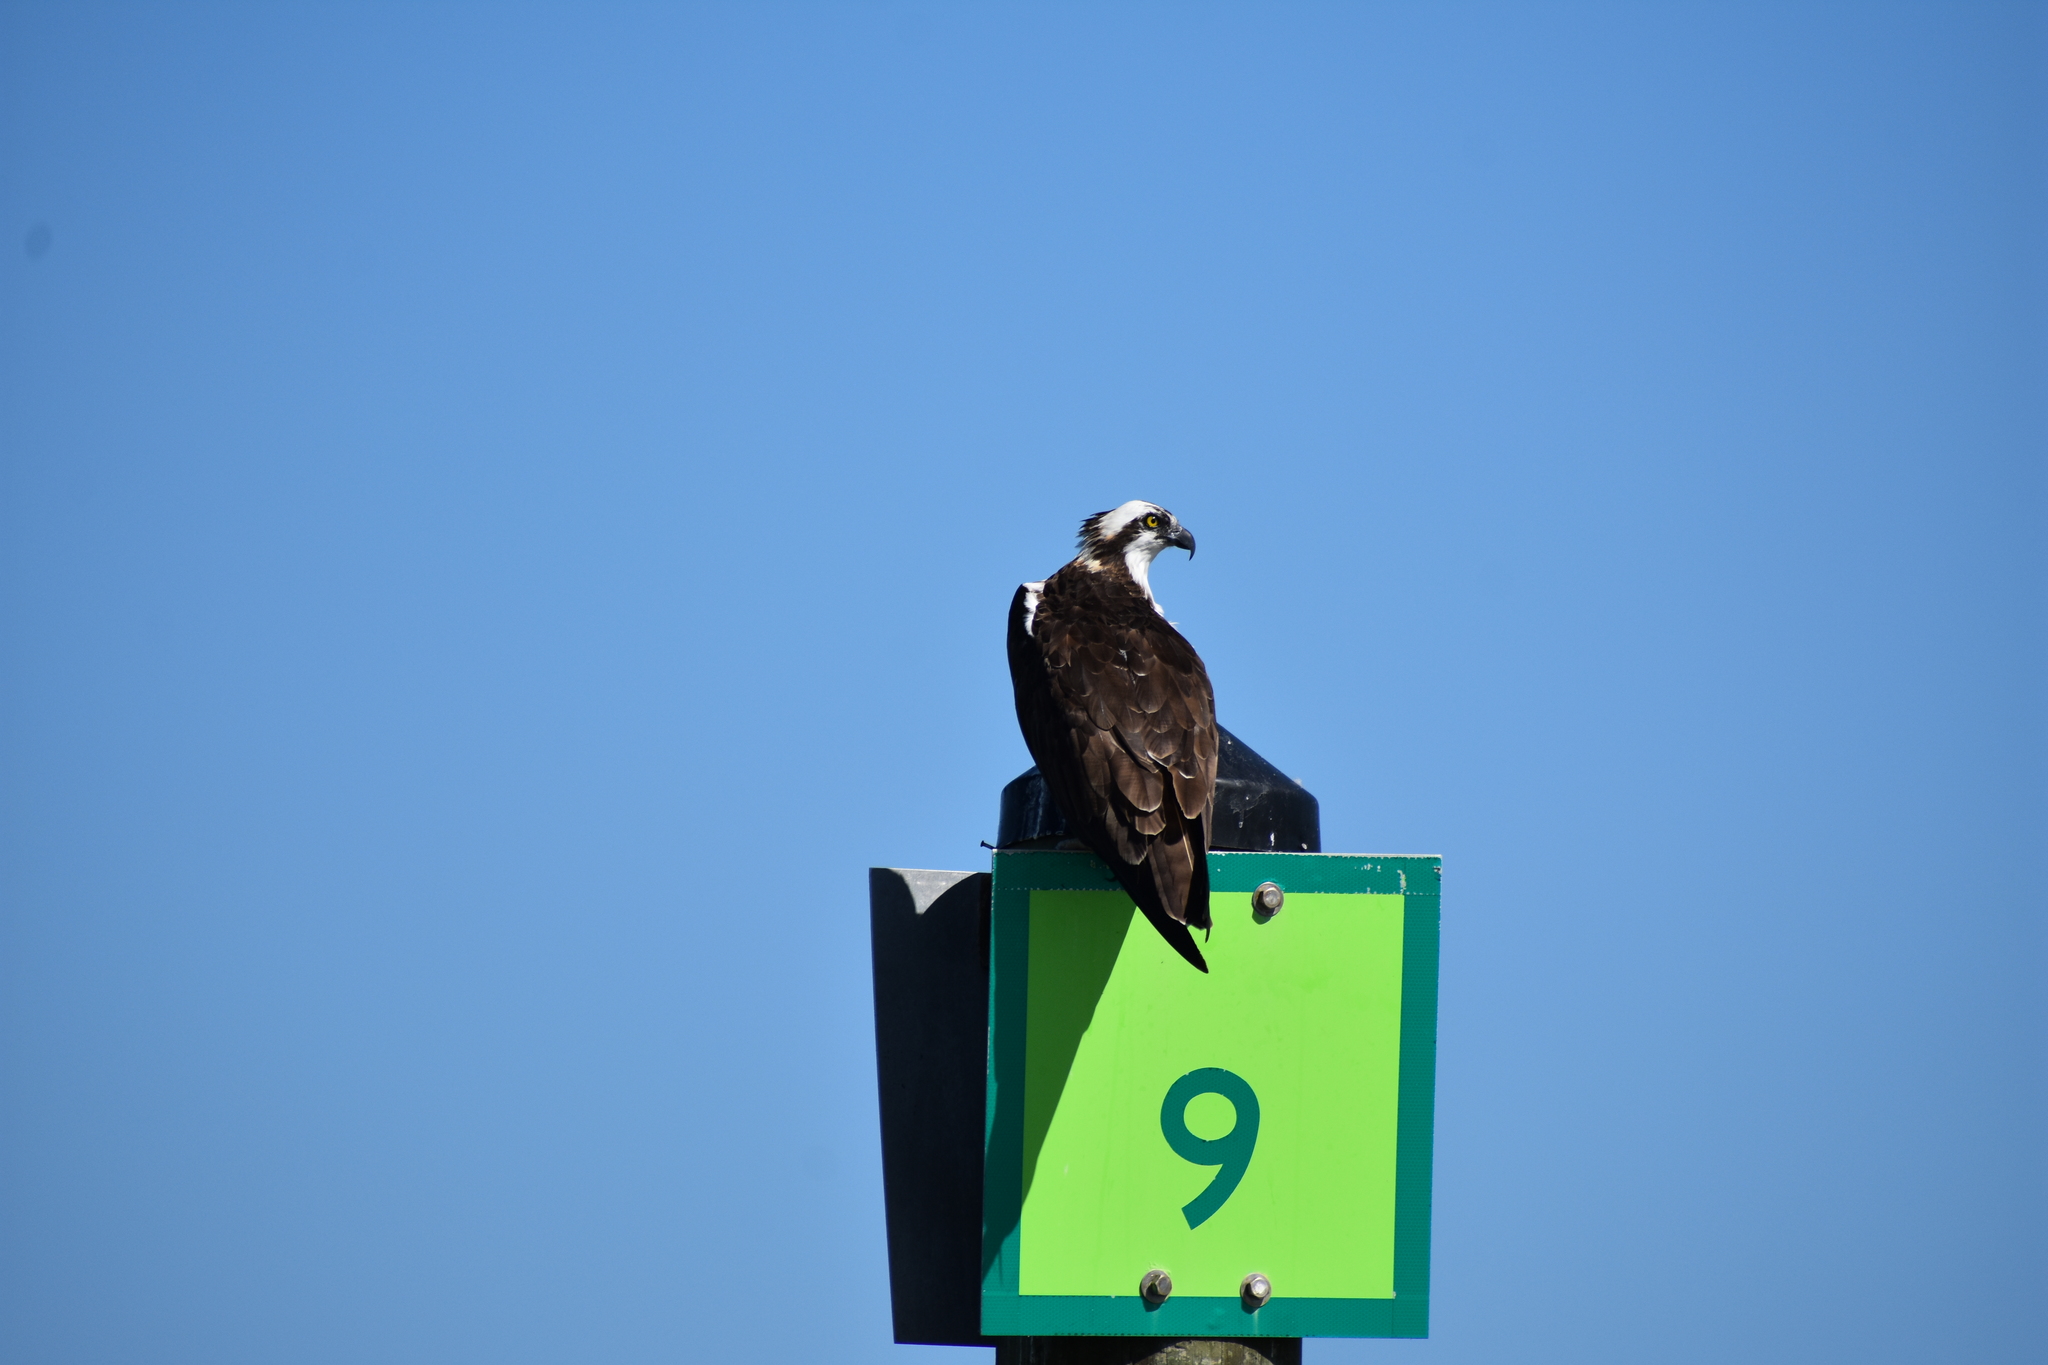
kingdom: Animalia
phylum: Chordata
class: Aves
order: Accipitriformes
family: Pandionidae
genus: Pandion
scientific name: Pandion haliaetus
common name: Osprey
